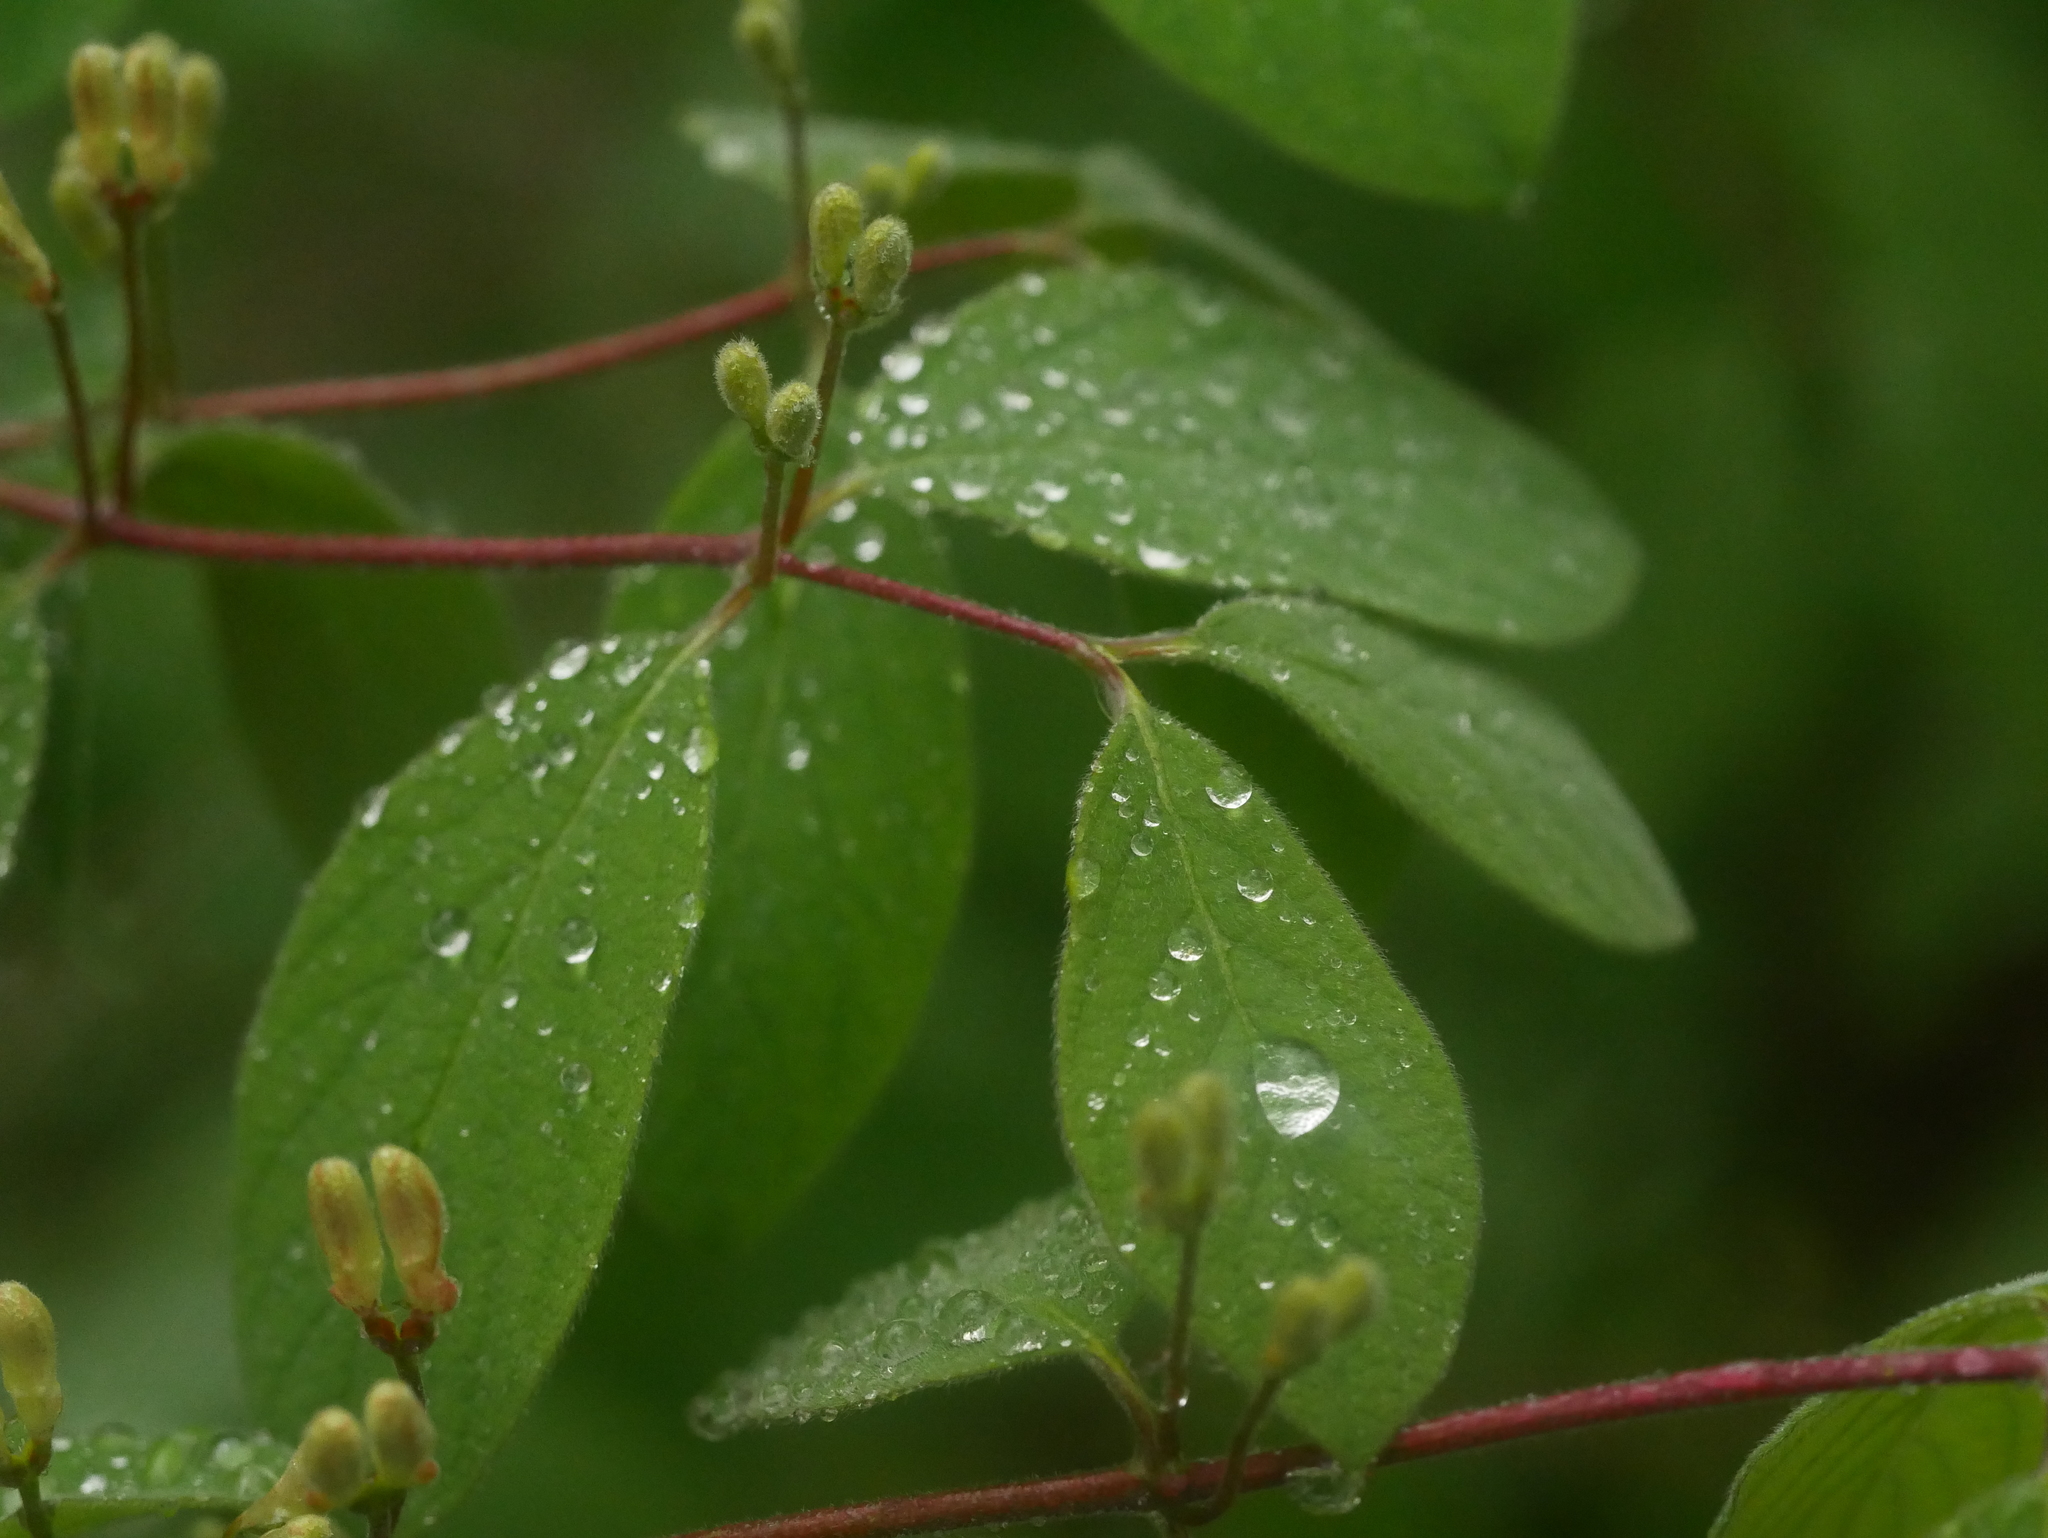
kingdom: Plantae
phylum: Tracheophyta
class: Magnoliopsida
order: Dipsacales
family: Caprifoliaceae
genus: Lonicera
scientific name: Lonicera xylosteum
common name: Fly honeysuckle
